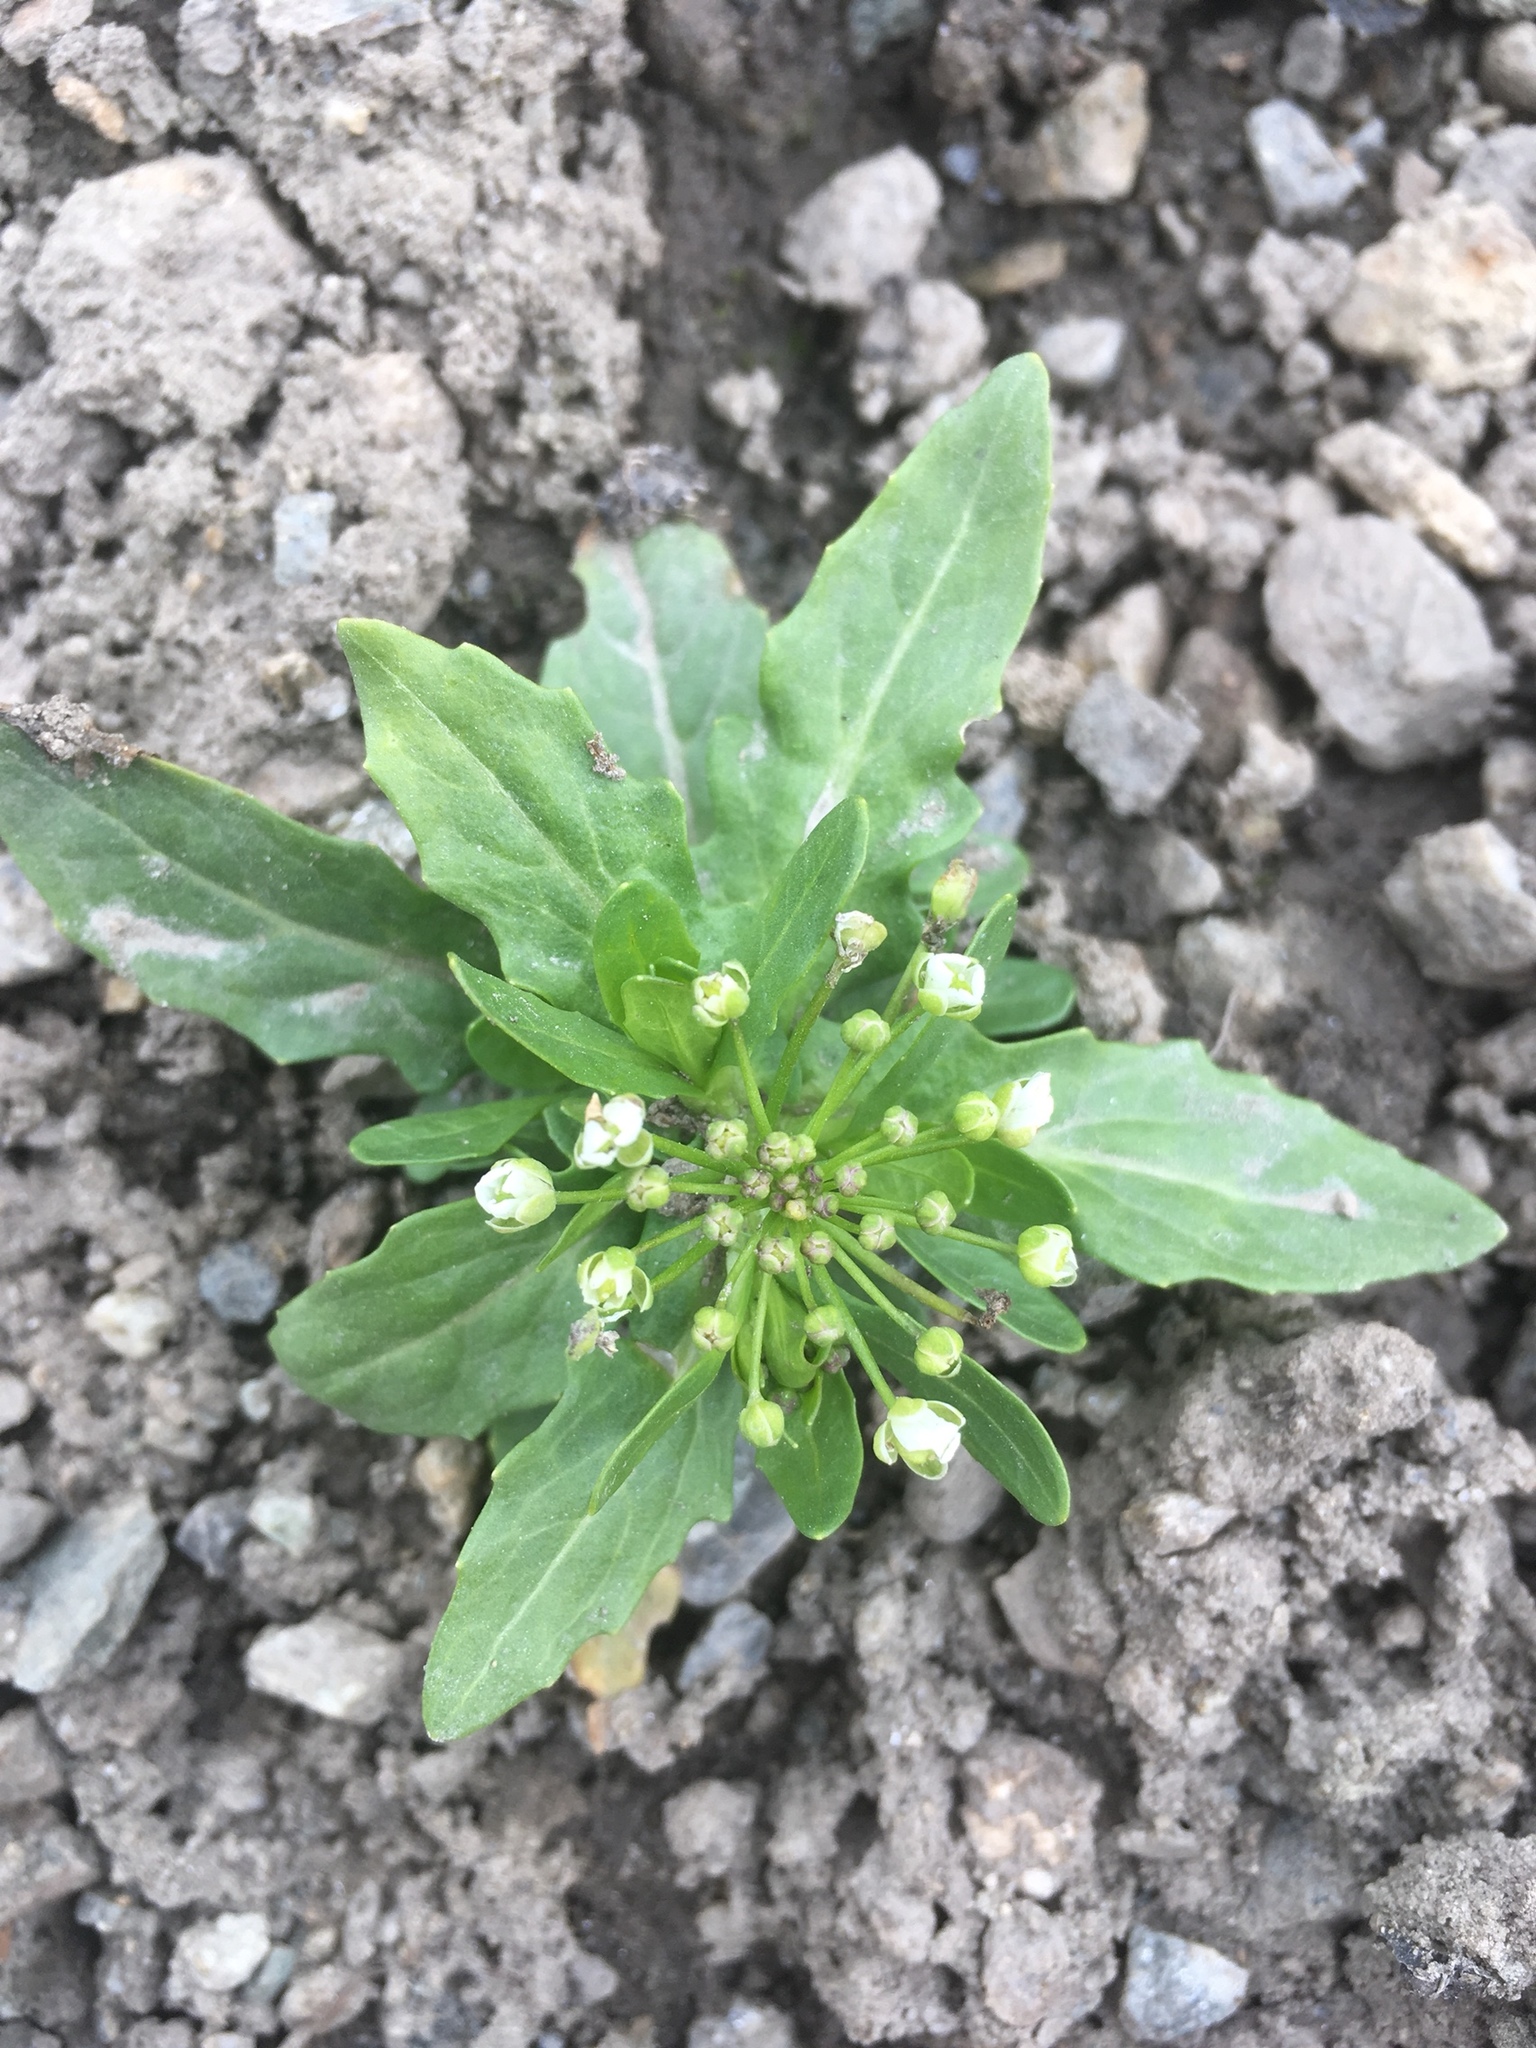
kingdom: Plantae
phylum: Tracheophyta
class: Magnoliopsida
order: Brassicales
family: Brassicaceae
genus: Thlaspi
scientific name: Thlaspi arvense
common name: Field pennycress
